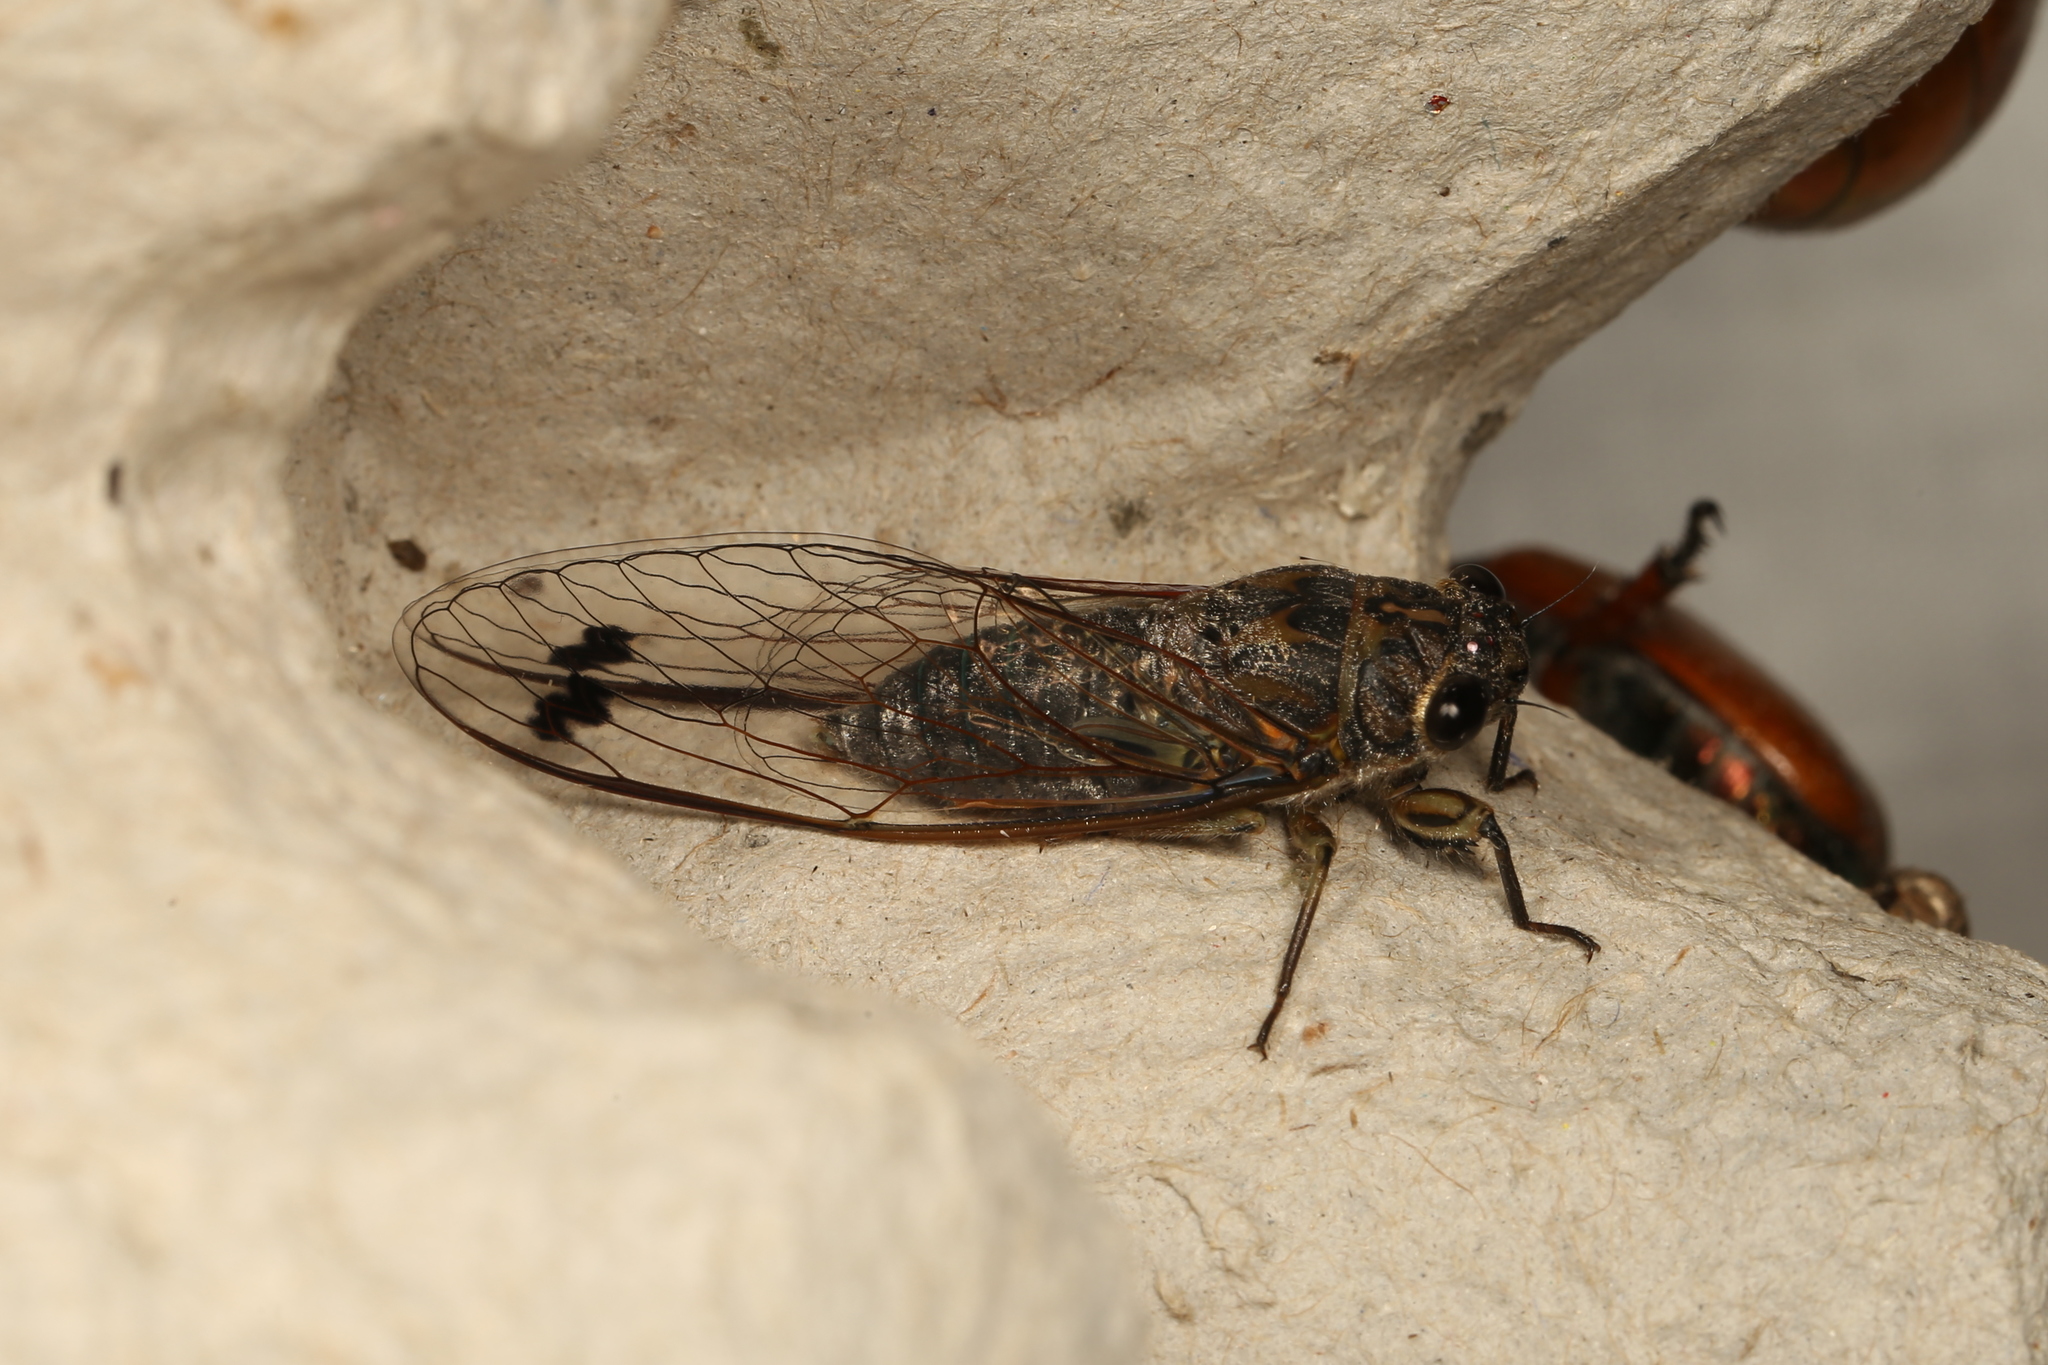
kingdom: Animalia
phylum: Arthropoda
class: Insecta
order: Hemiptera
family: Cicadidae
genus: Galanga
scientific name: Galanga labeculata
